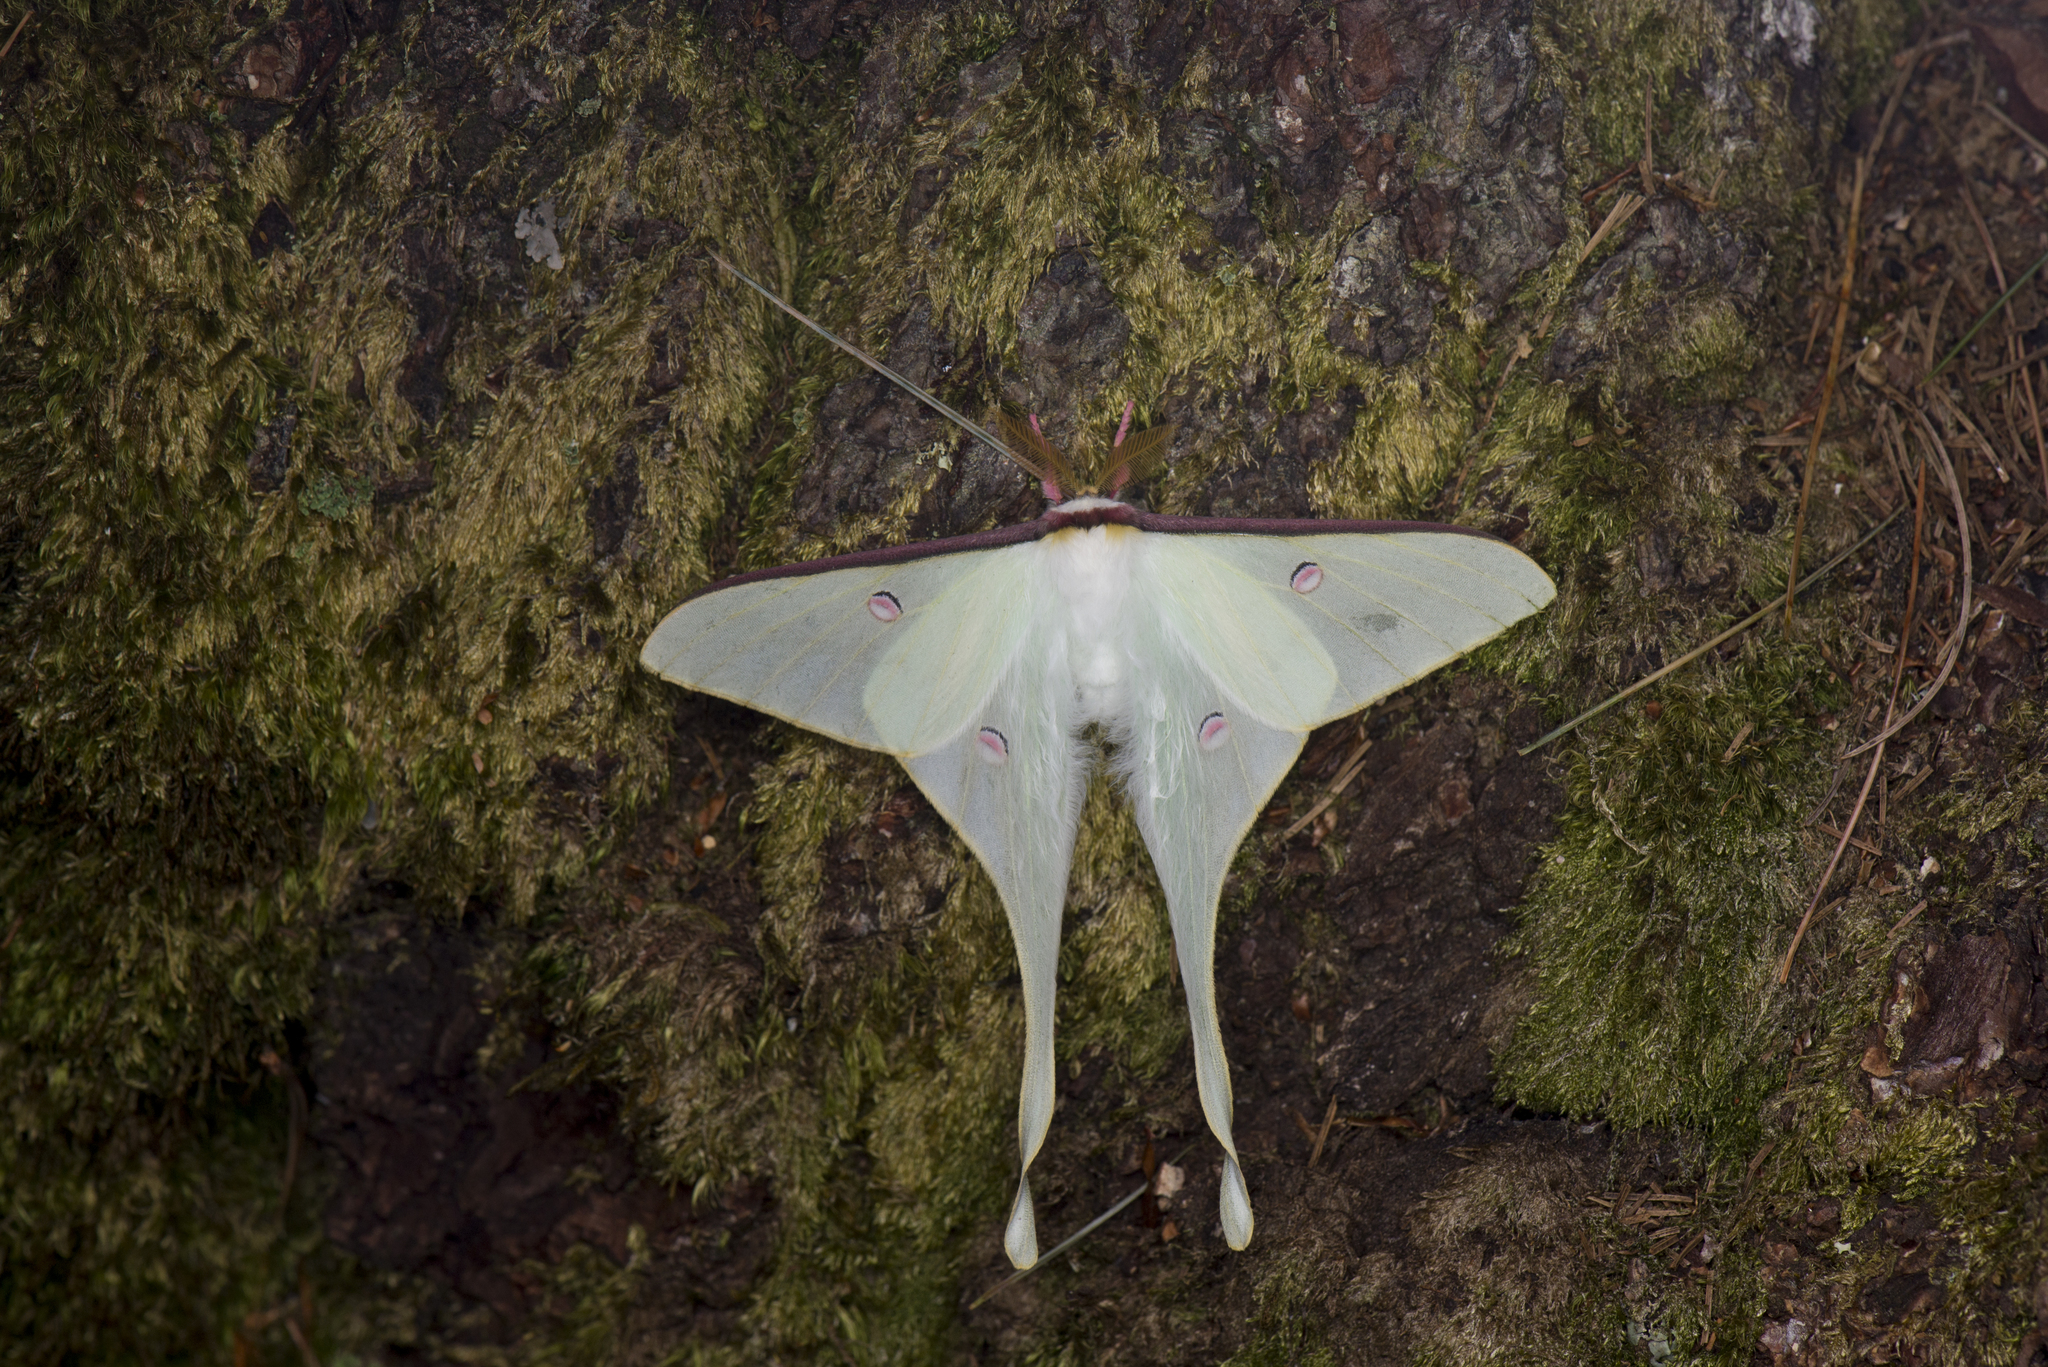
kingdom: Animalia
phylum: Arthropoda
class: Insecta
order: Lepidoptera
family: Saturniidae
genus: Actias
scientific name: Actias neidhoeferi
